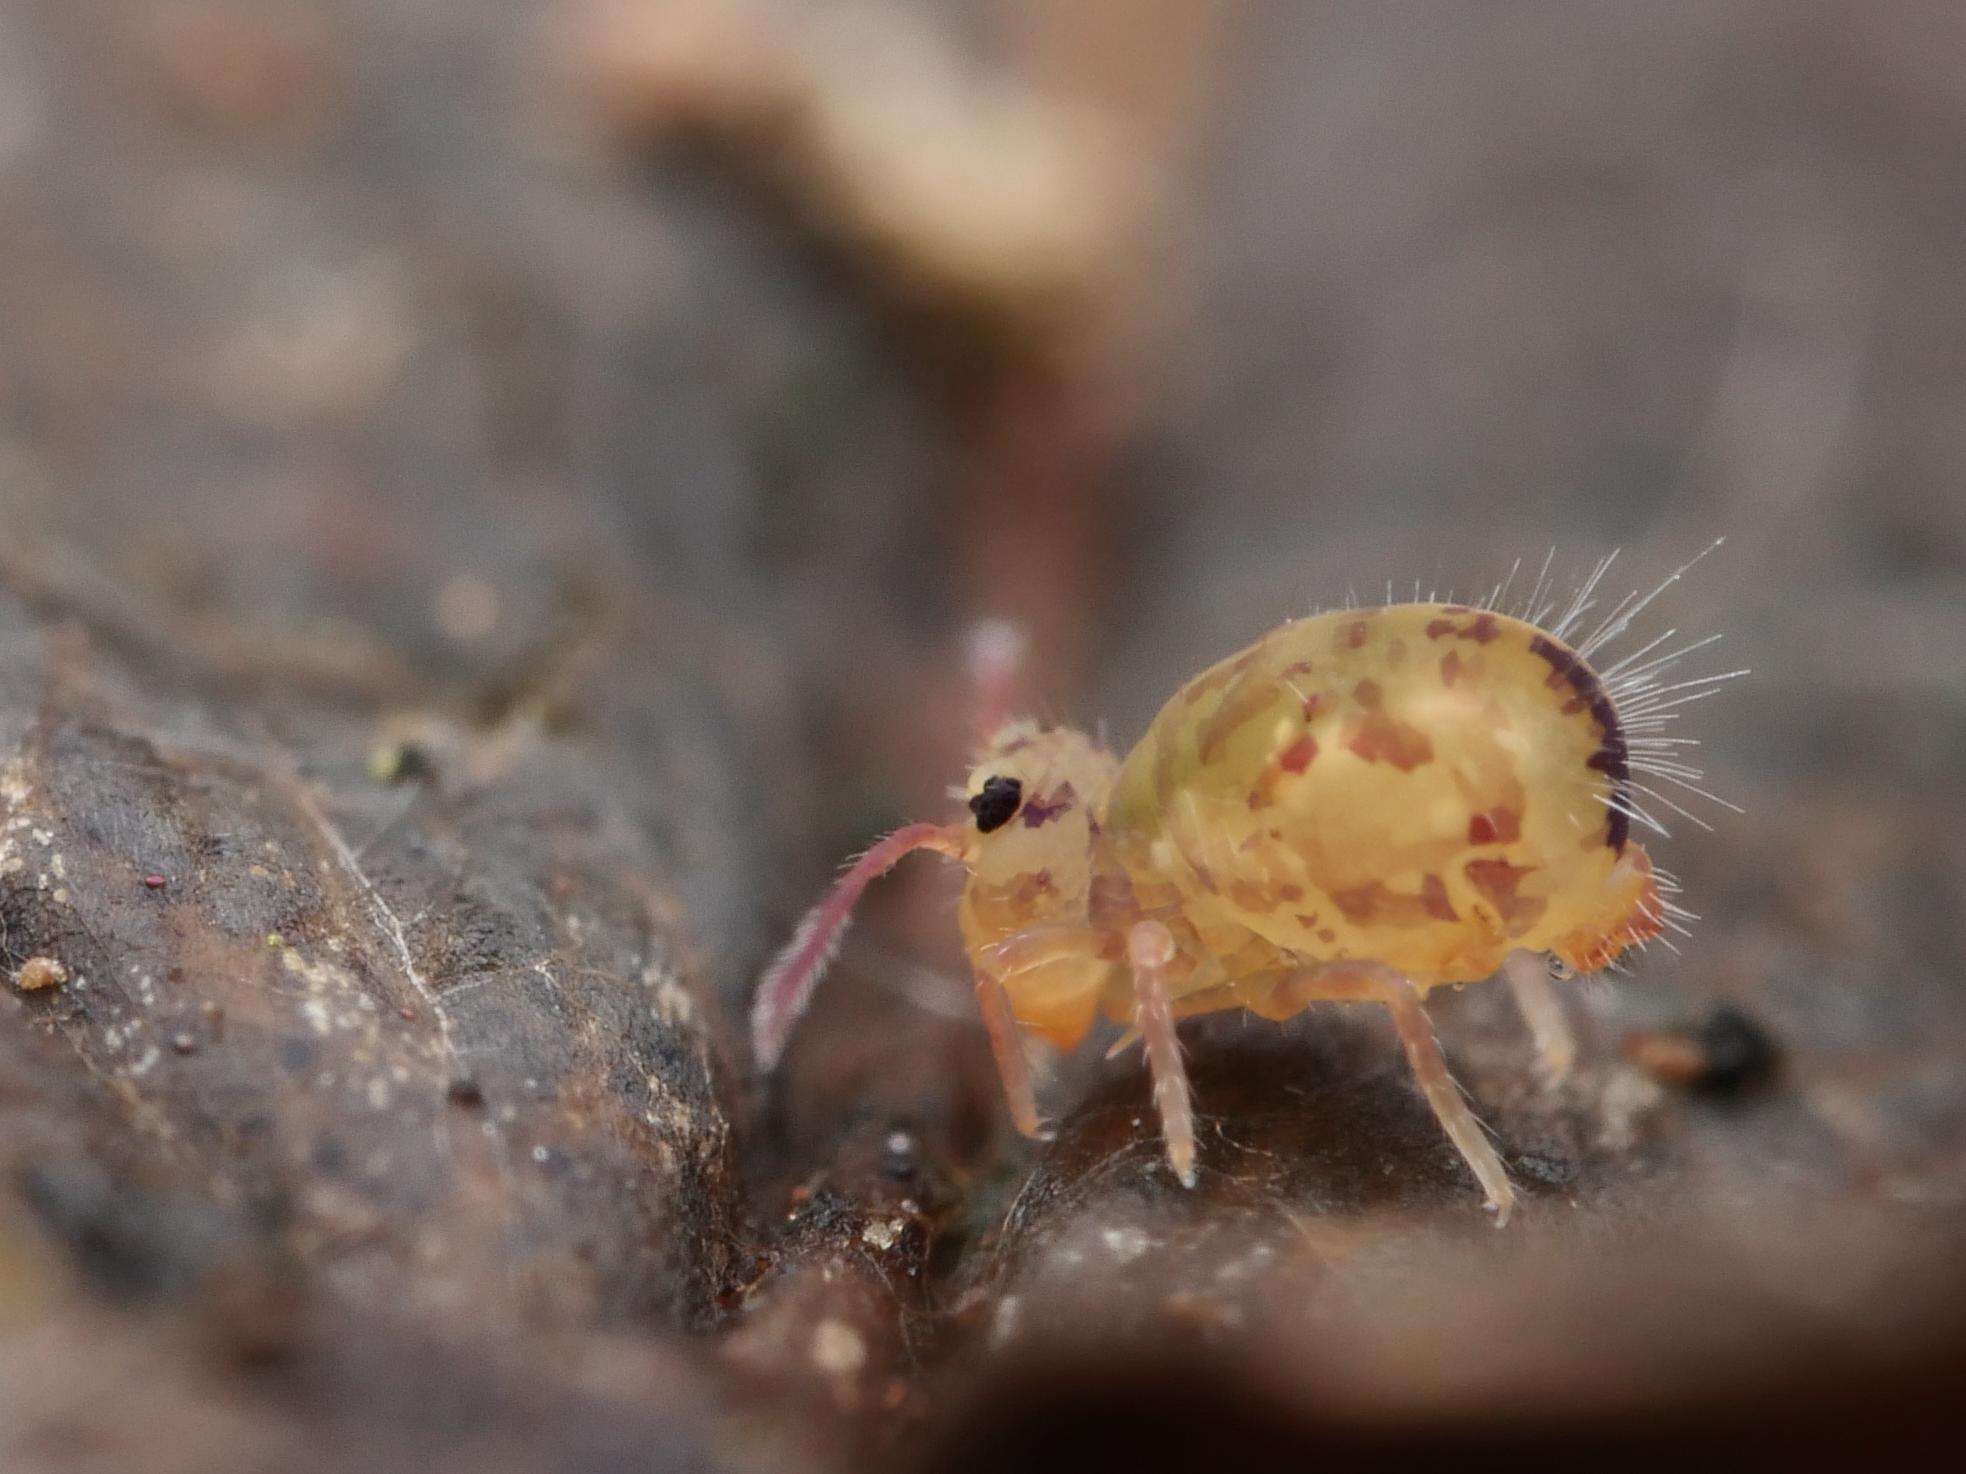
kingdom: Animalia
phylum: Arthropoda
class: Collembola
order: Symphypleona
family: Dicyrtomidae
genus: Dicyrtomina
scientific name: Dicyrtomina ornata
